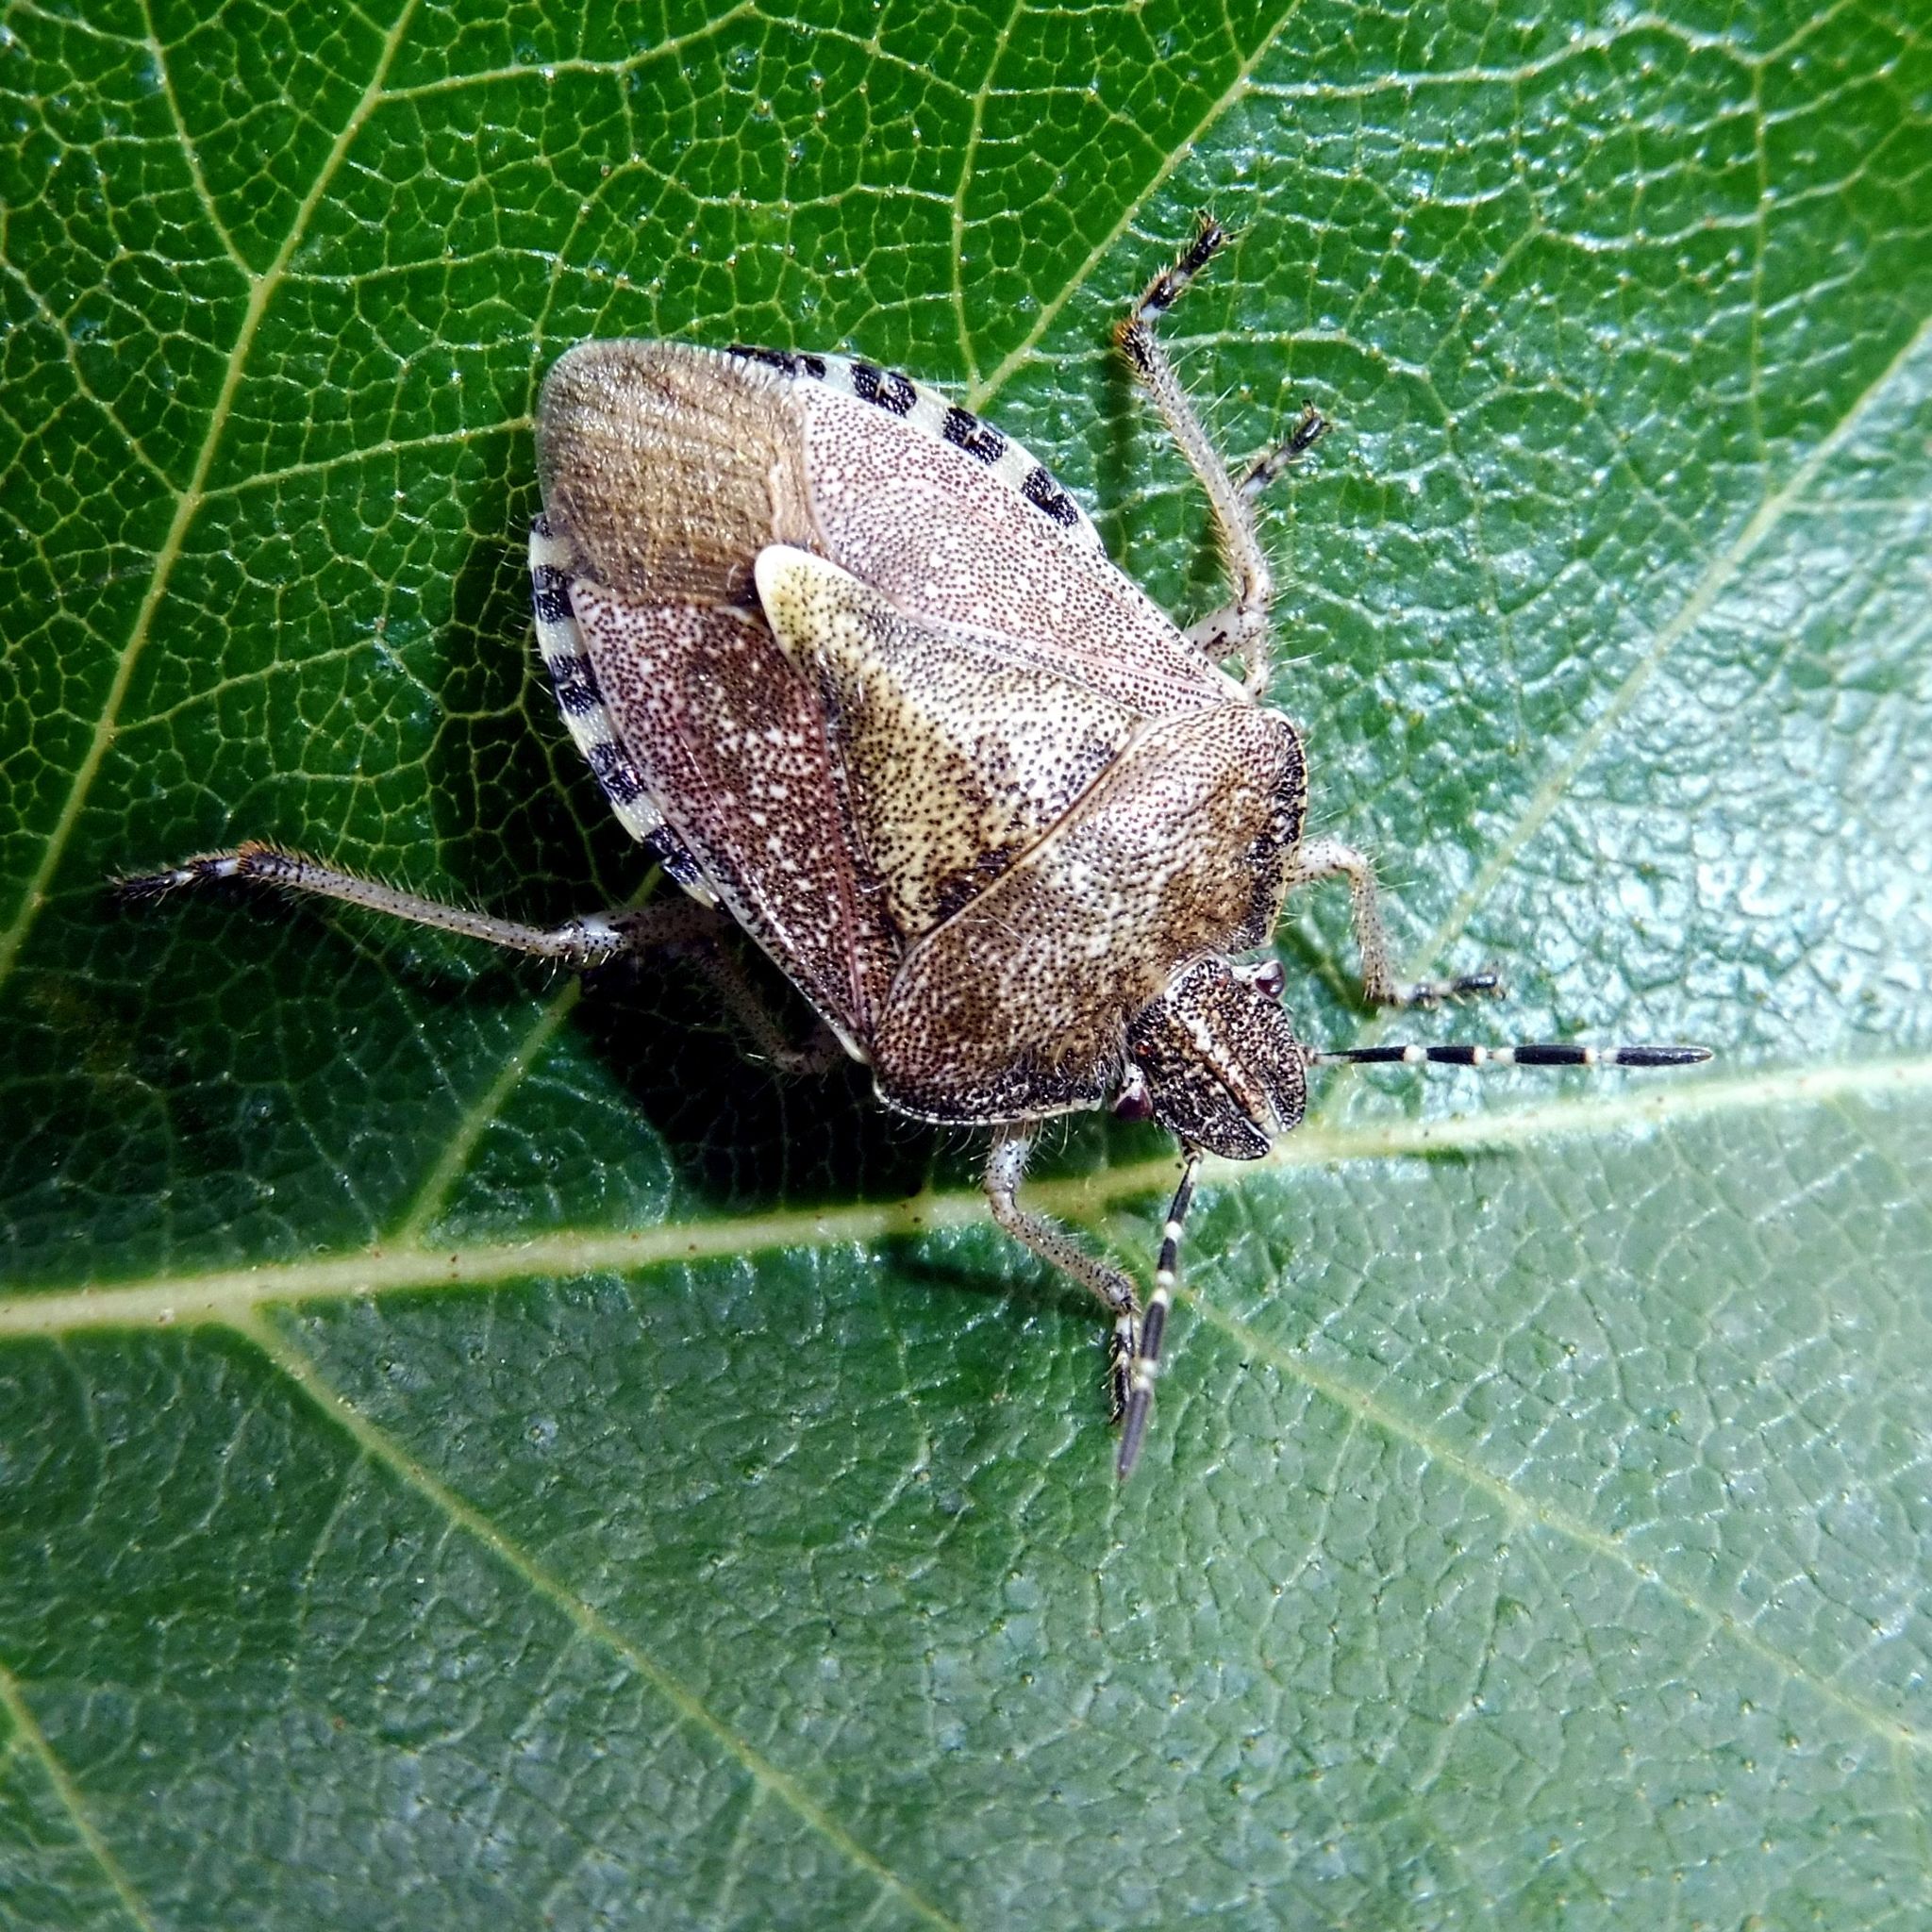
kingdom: Animalia
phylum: Arthropoda
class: Insecta
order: Hemiptera
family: Pentatomidae
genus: Dolycoris
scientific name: Dolycoris baccarum
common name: Sloe bug
